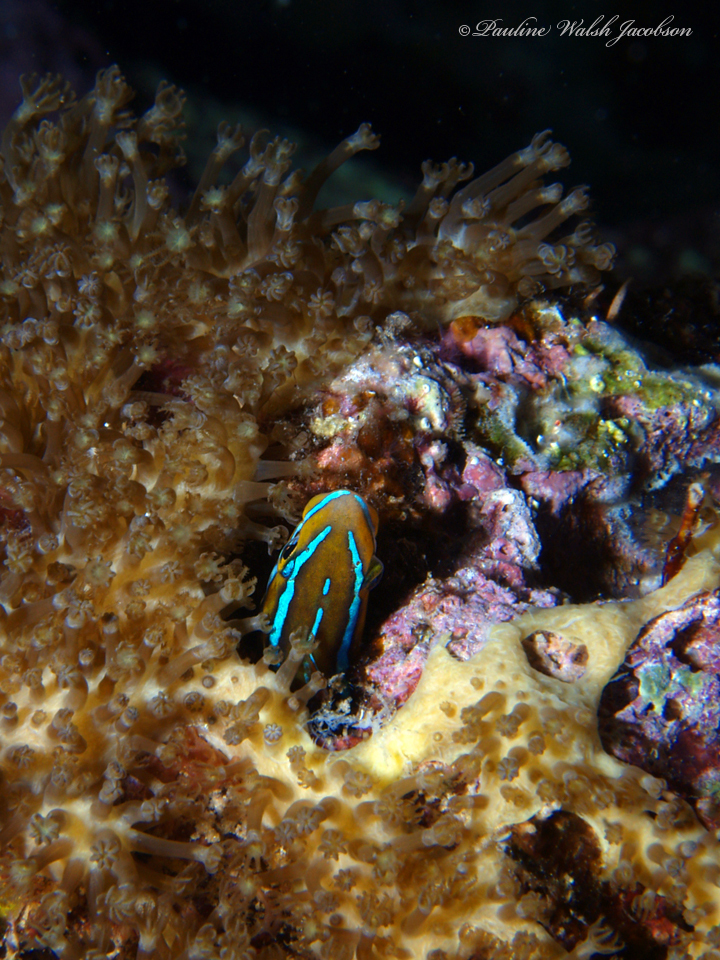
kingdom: Animalia
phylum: Chordata
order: Perciformes
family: Blenniidae
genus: Plagiotremus
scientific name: Plagiotremus rhinorhynchos
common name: Bluestriped fangblenny
